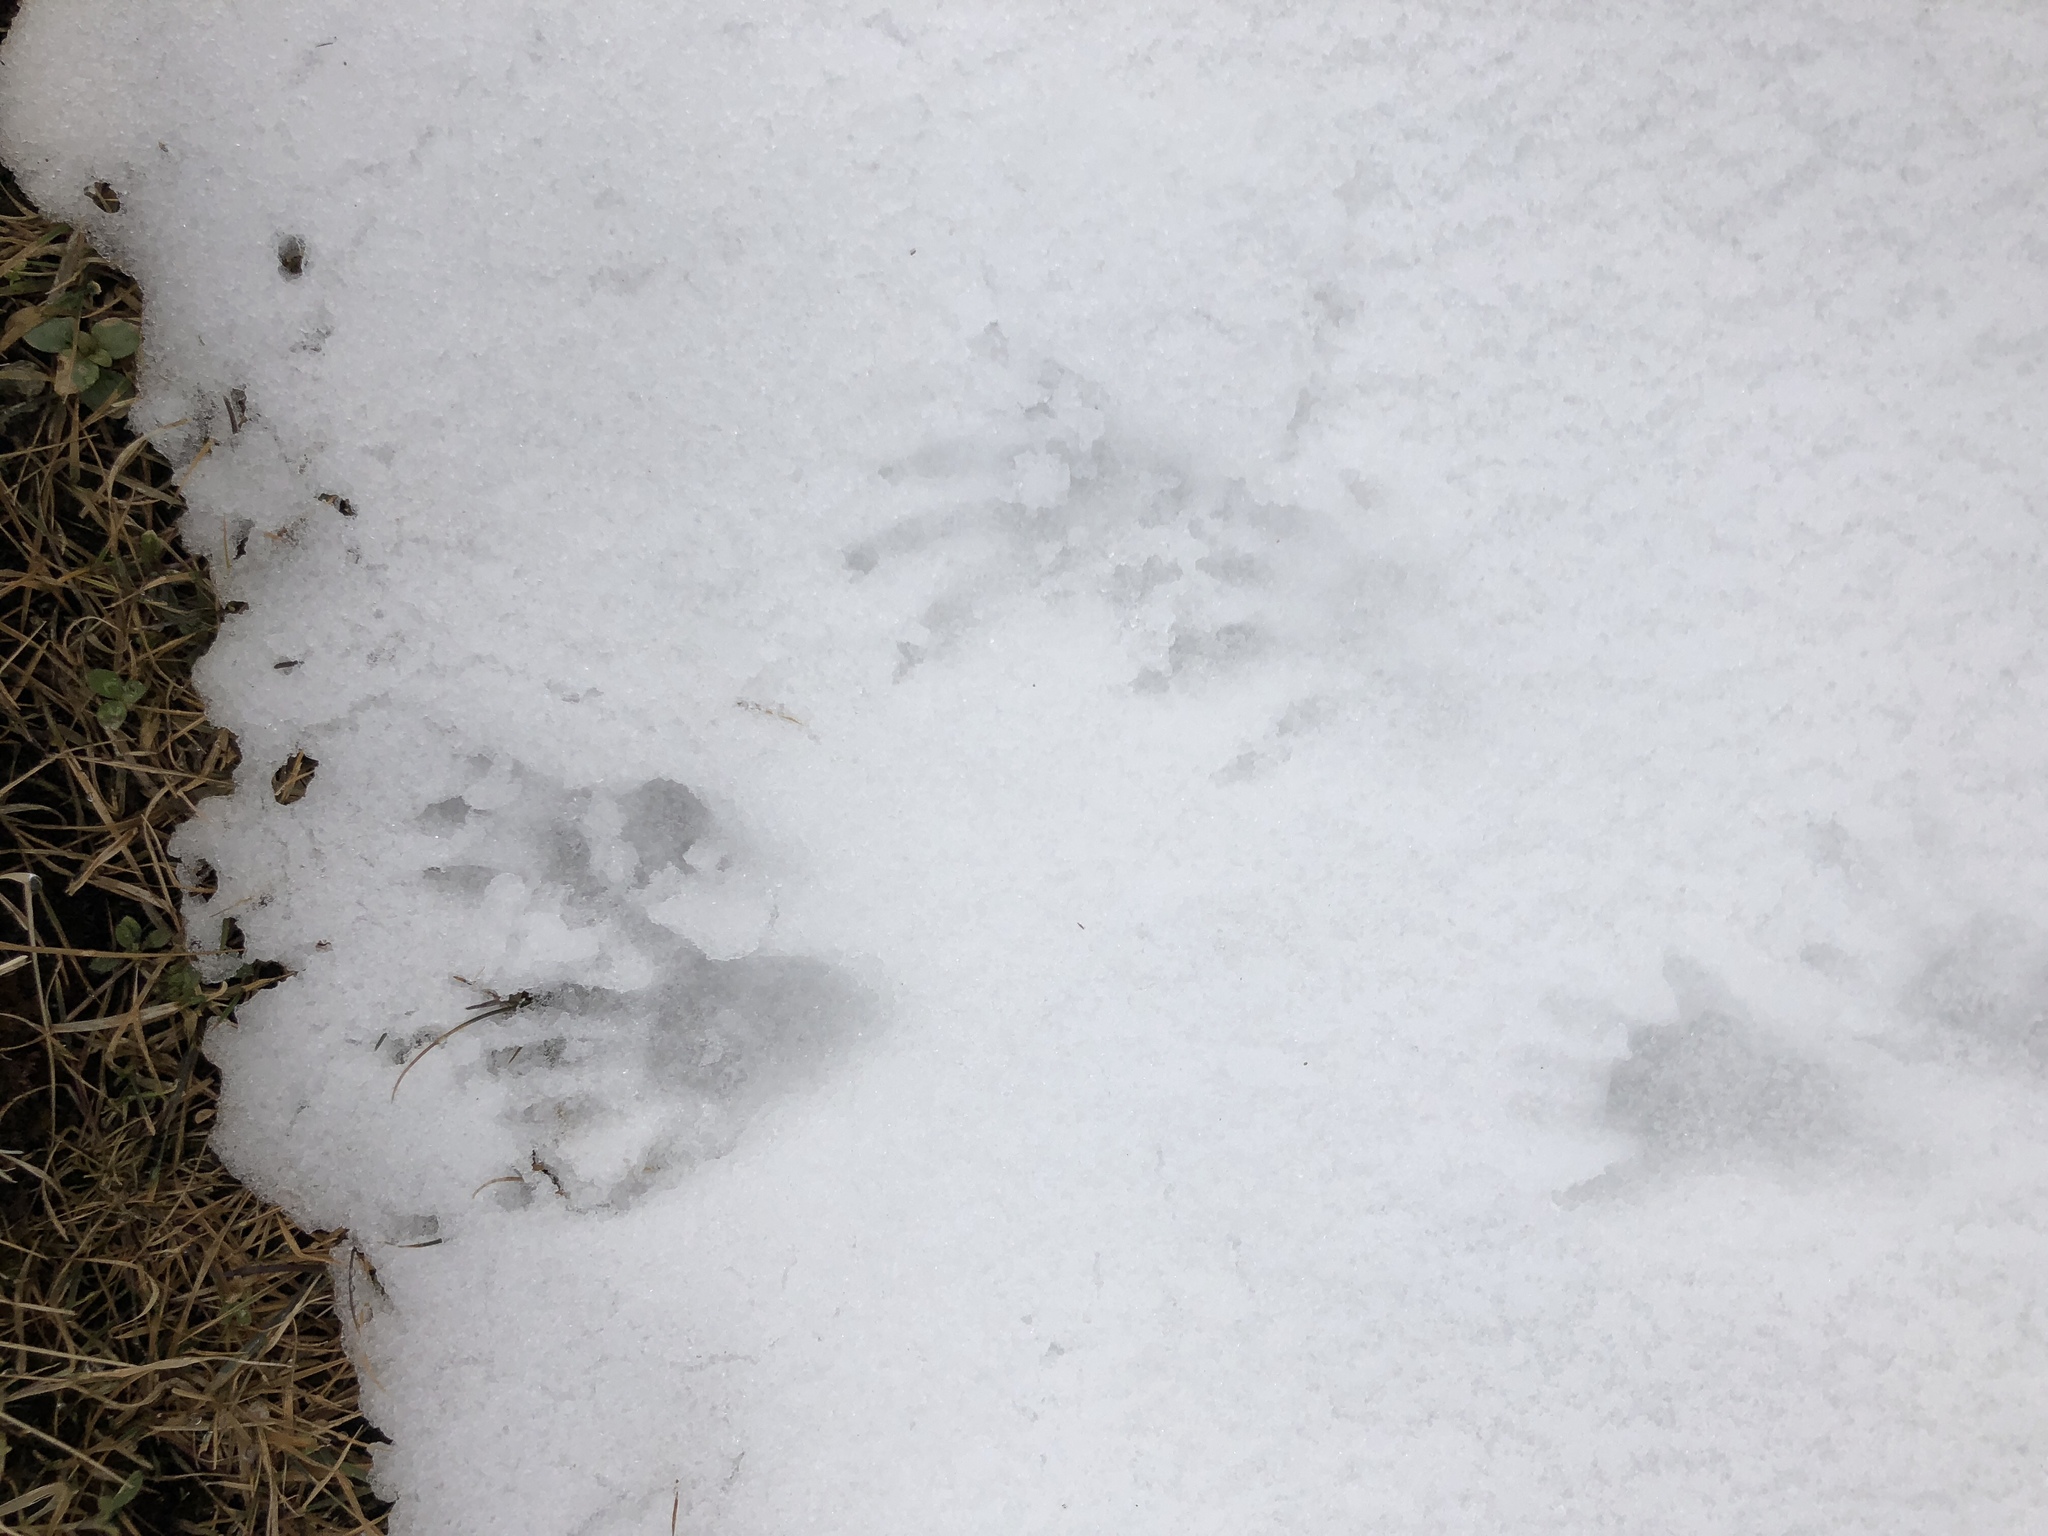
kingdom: Animalia
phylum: Chordata
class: Mammalia
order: Carnivora
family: Procyonidae
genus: Procyon
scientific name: Procyon lotor
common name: Raccoon
